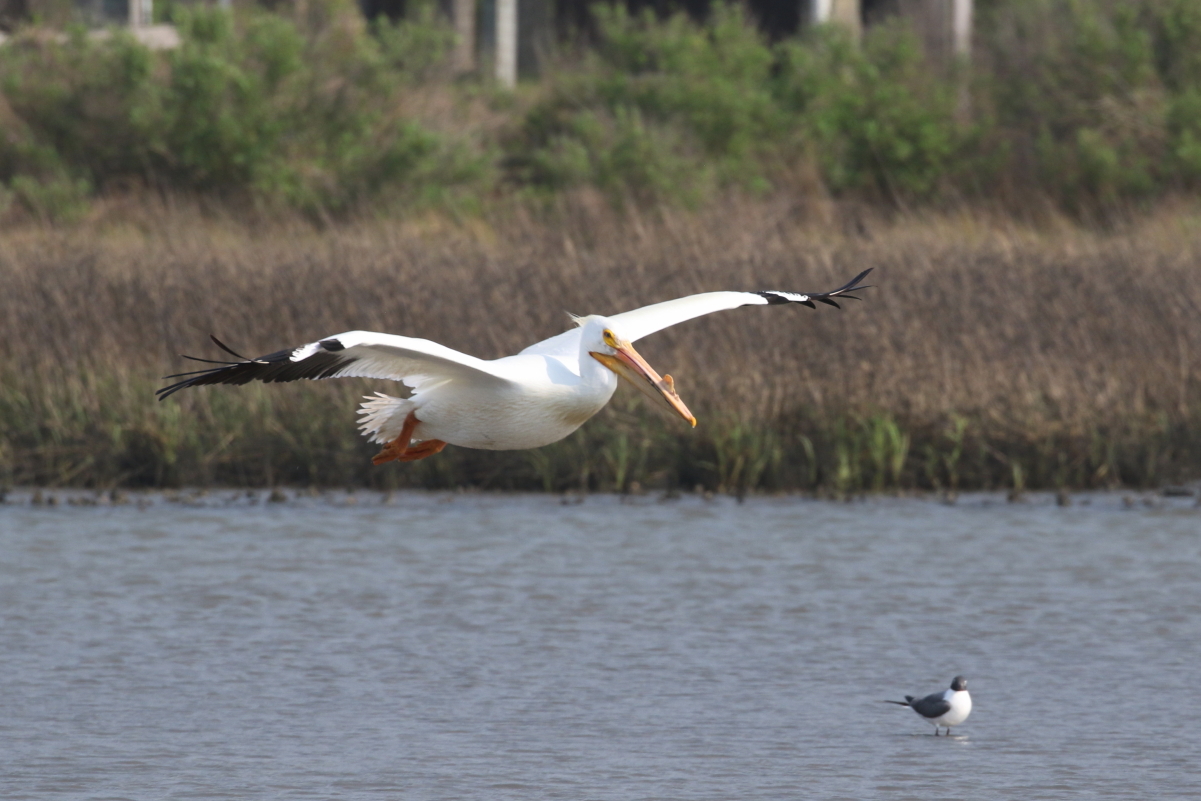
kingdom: Animalia
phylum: Chordata
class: Aves
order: Pelecaniformes
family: Pelecanidae
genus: Pelecanus
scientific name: Pelecanus erythrorhynchos
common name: American white pelican
